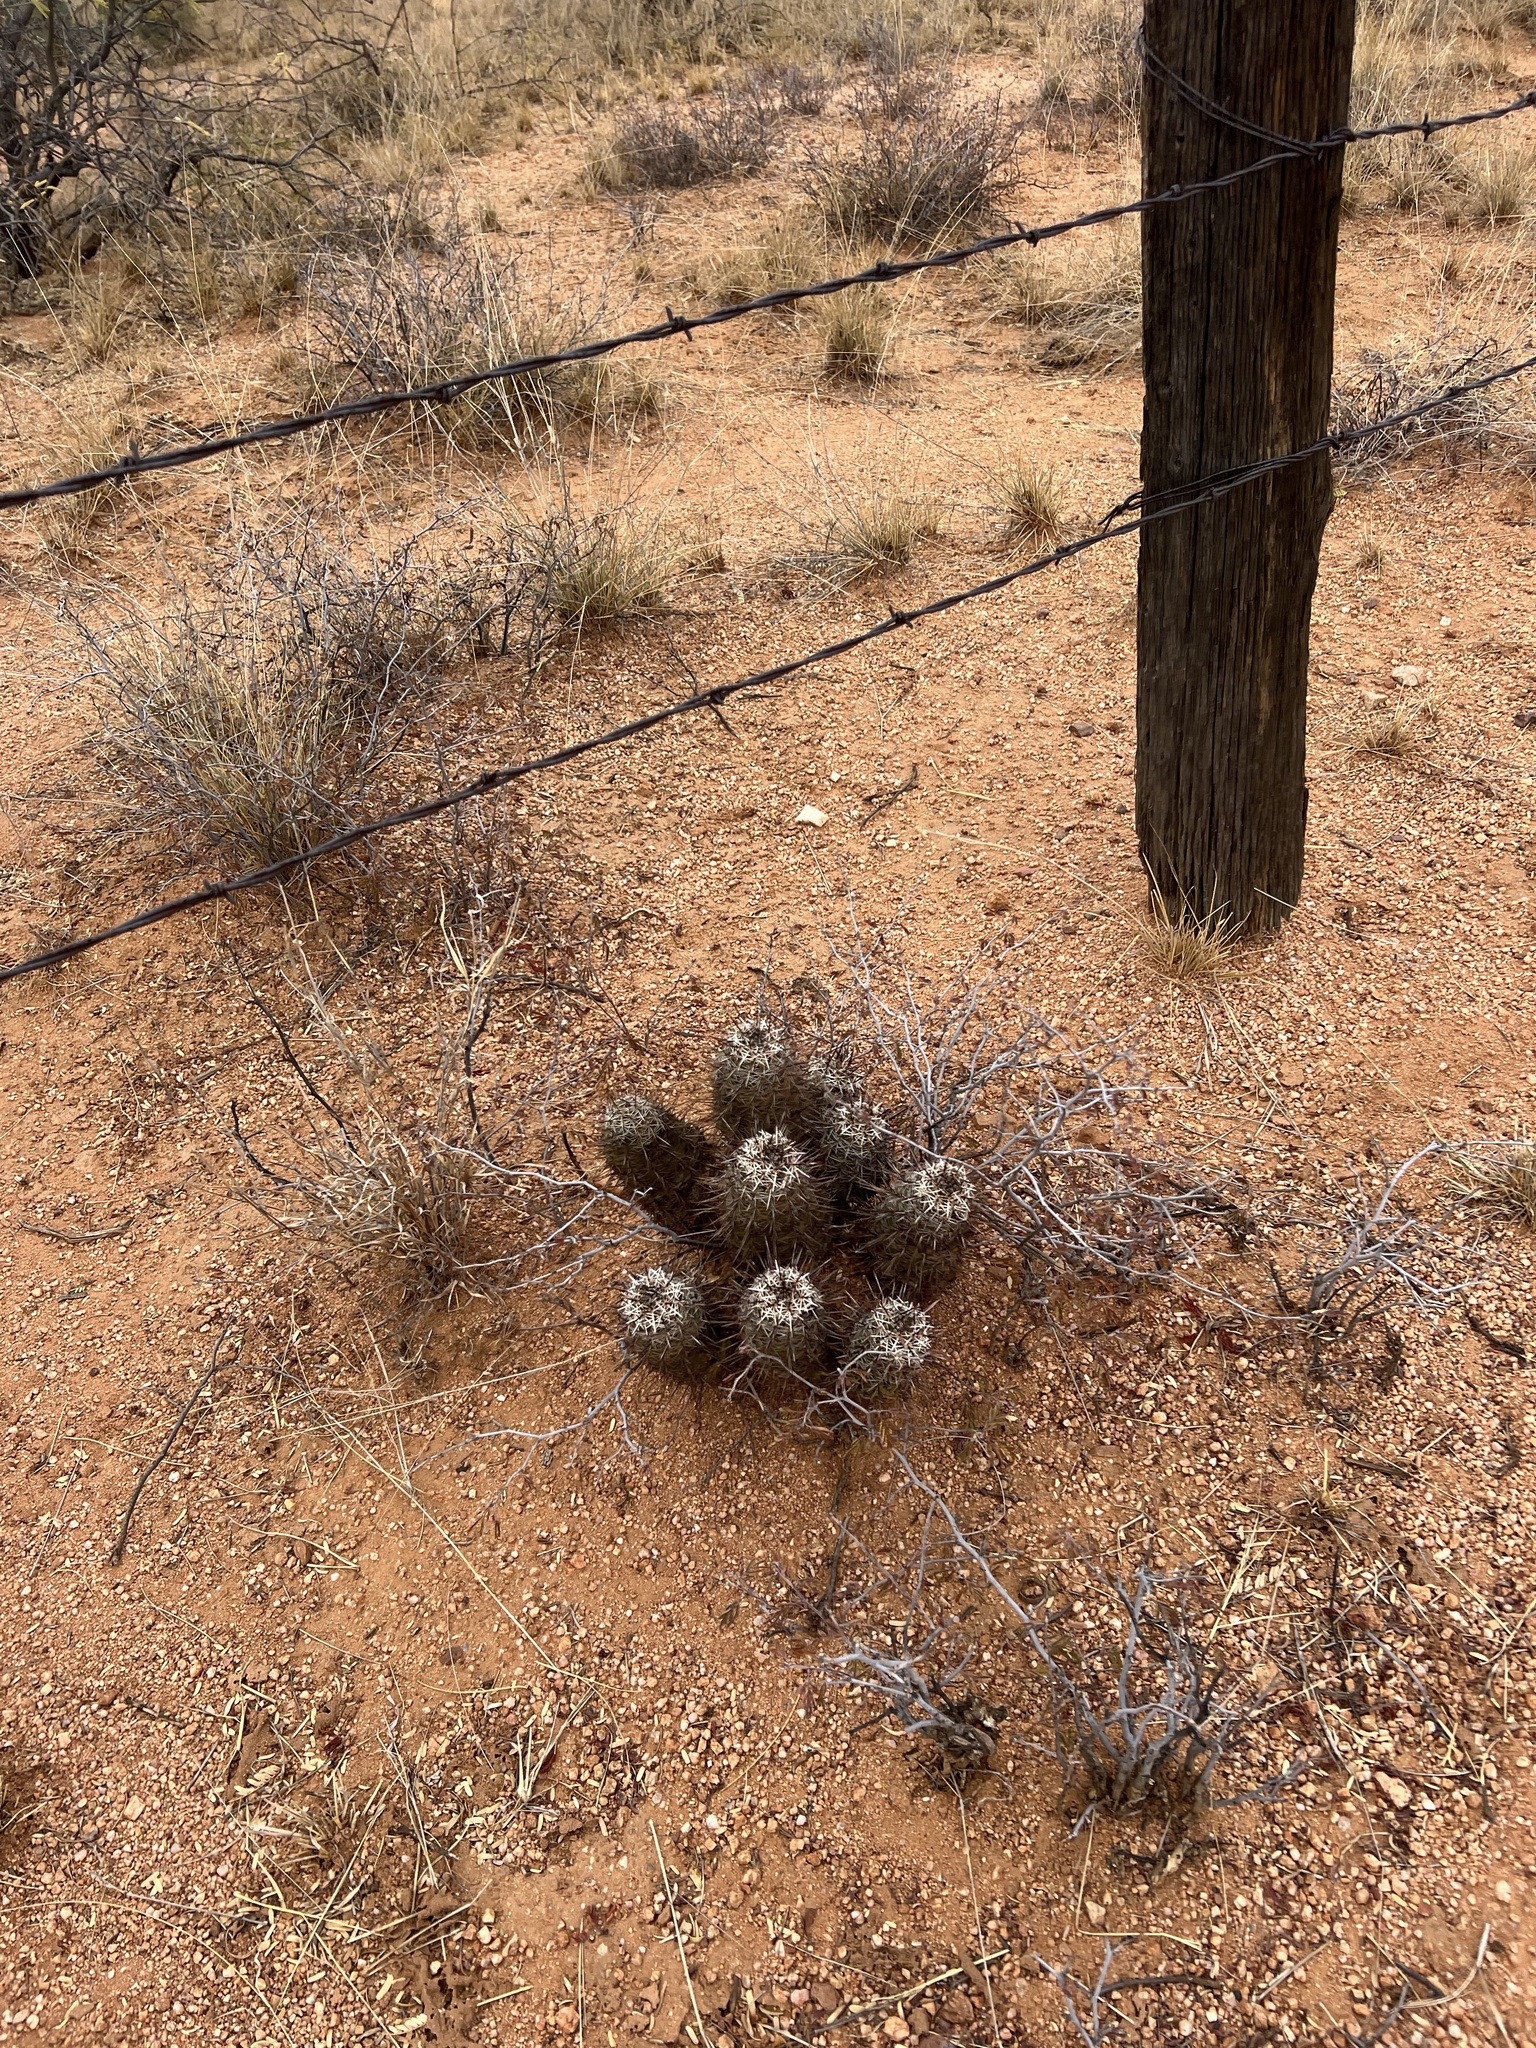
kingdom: Plantae
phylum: Tracheophyta
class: Magnoliopsida
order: Caryophyllales
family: Cactaceae
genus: Echinocereus
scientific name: Echinocereus fasciculatus
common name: Bundle hedgehog
